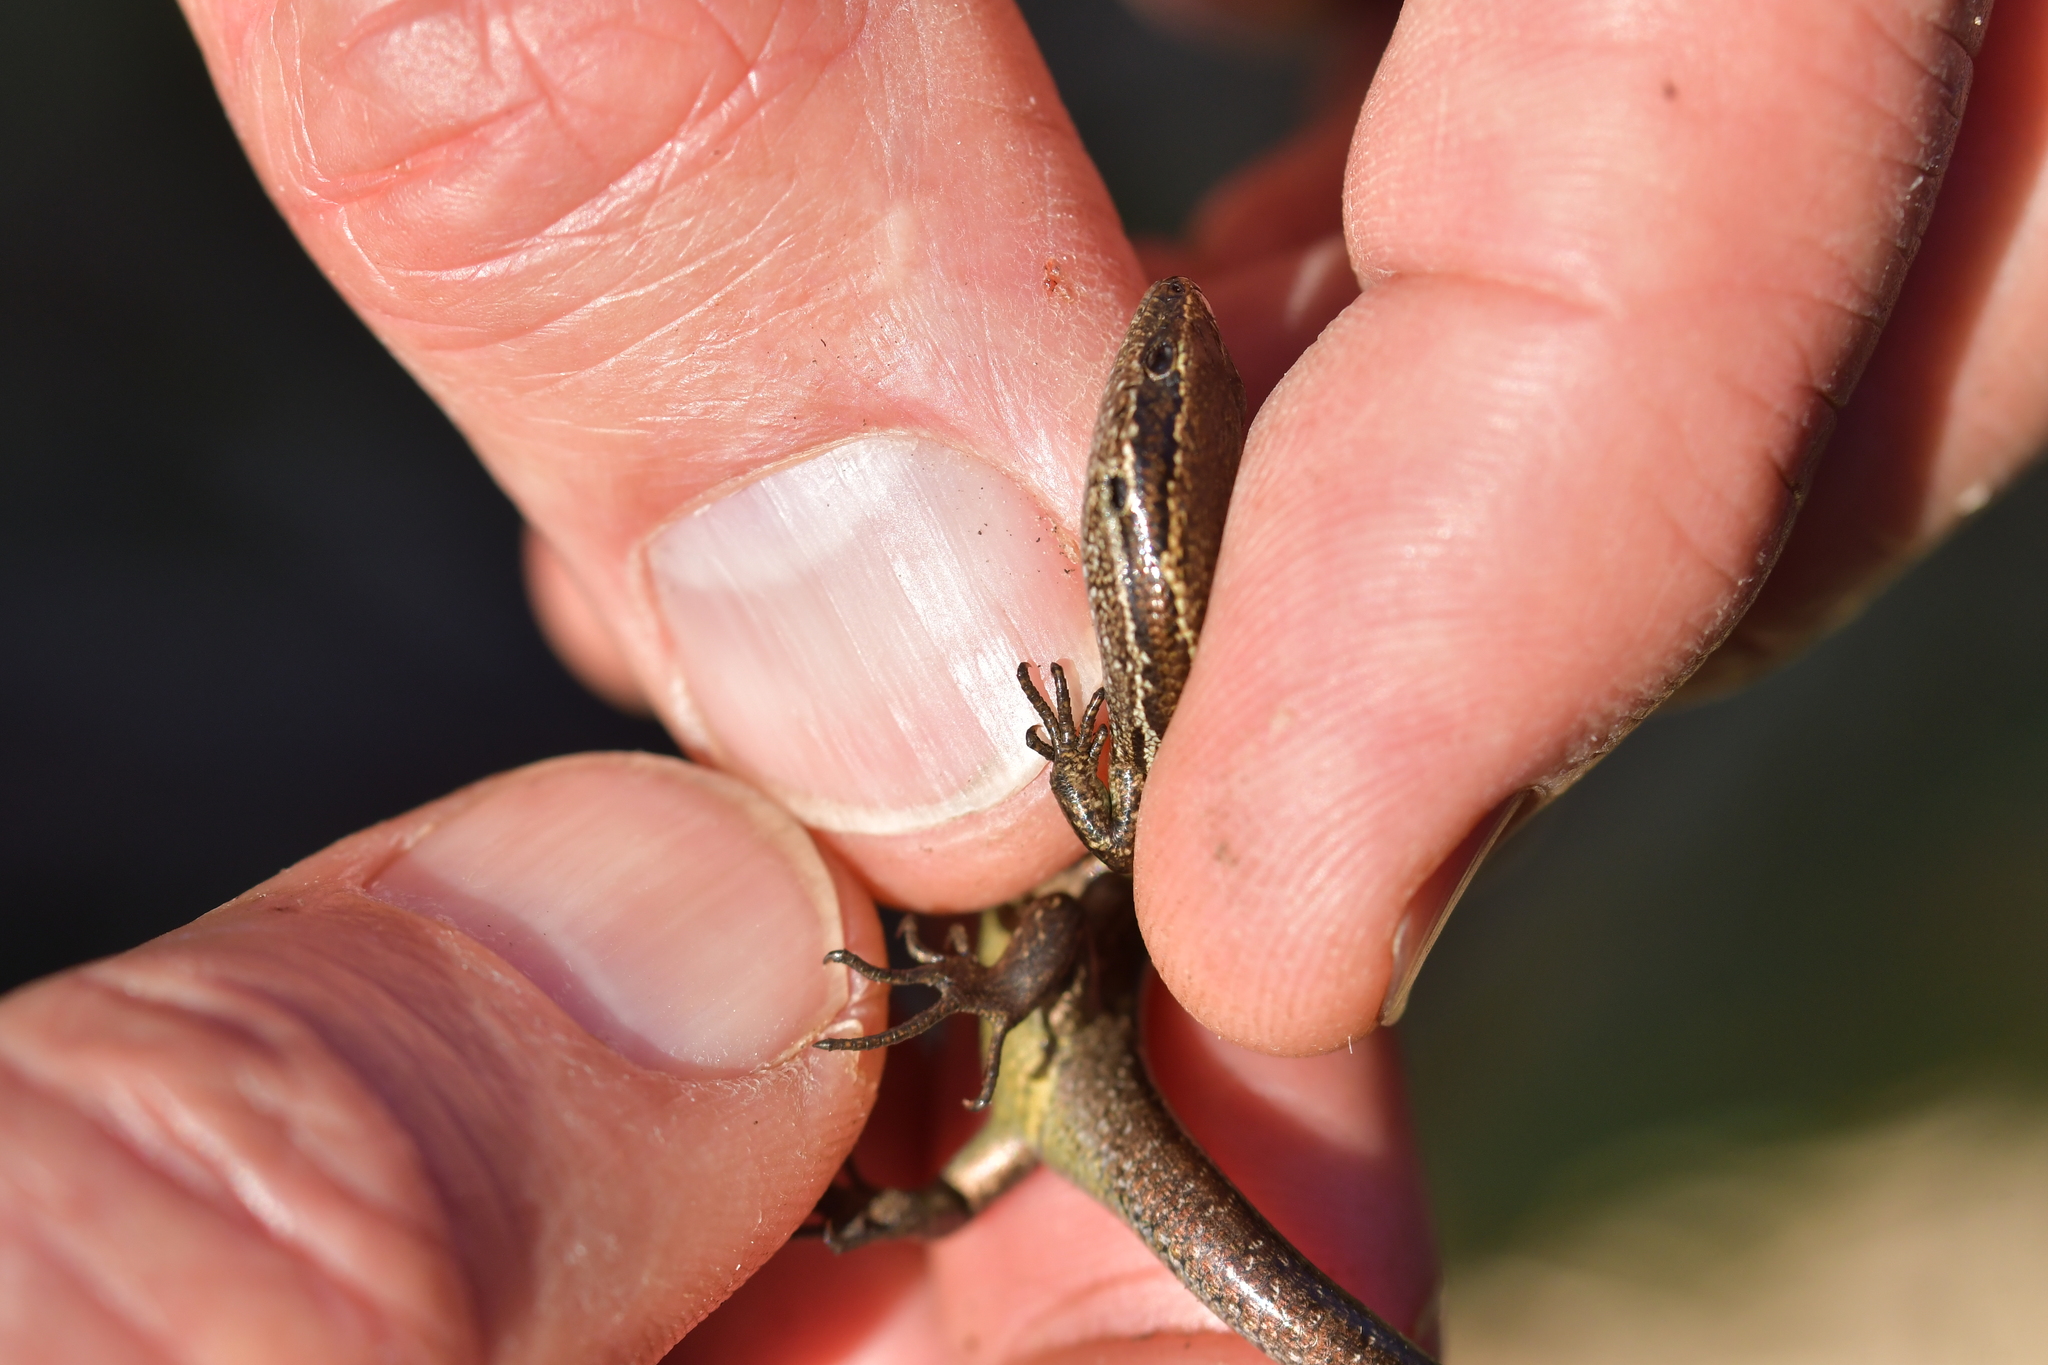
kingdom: Animalia
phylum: Chordata
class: Squamata
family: Scincidae
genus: Oligosoma
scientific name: Oligosoma polychroma
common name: Common new zealand skink
